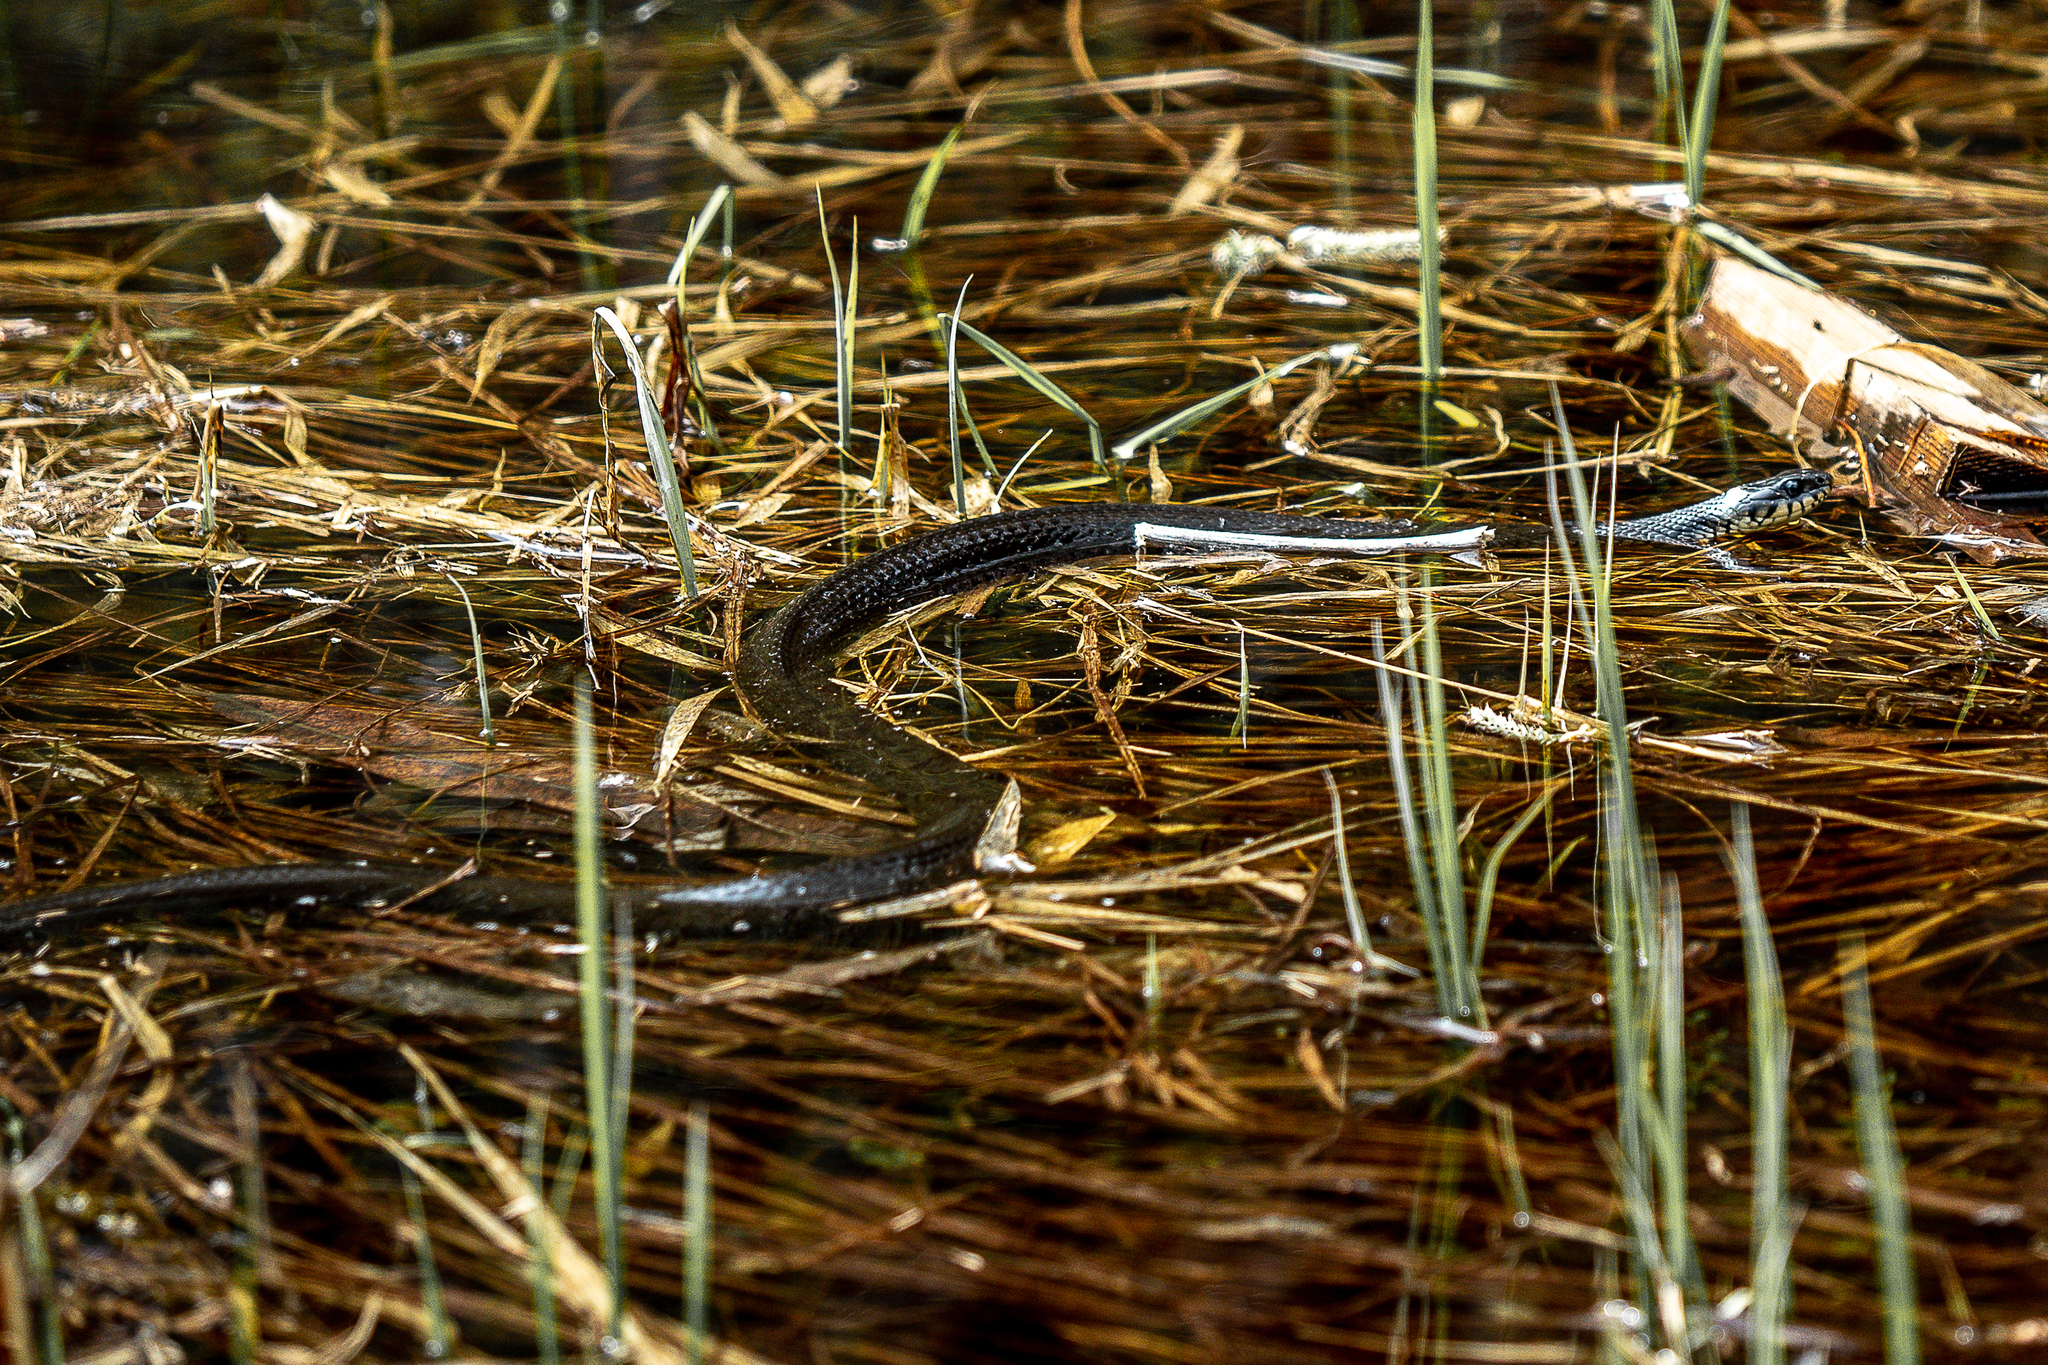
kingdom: Animalia
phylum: Chordata
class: Squamata
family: Colubridae
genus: Natrix
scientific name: Natrix natrix
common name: Grass snake
